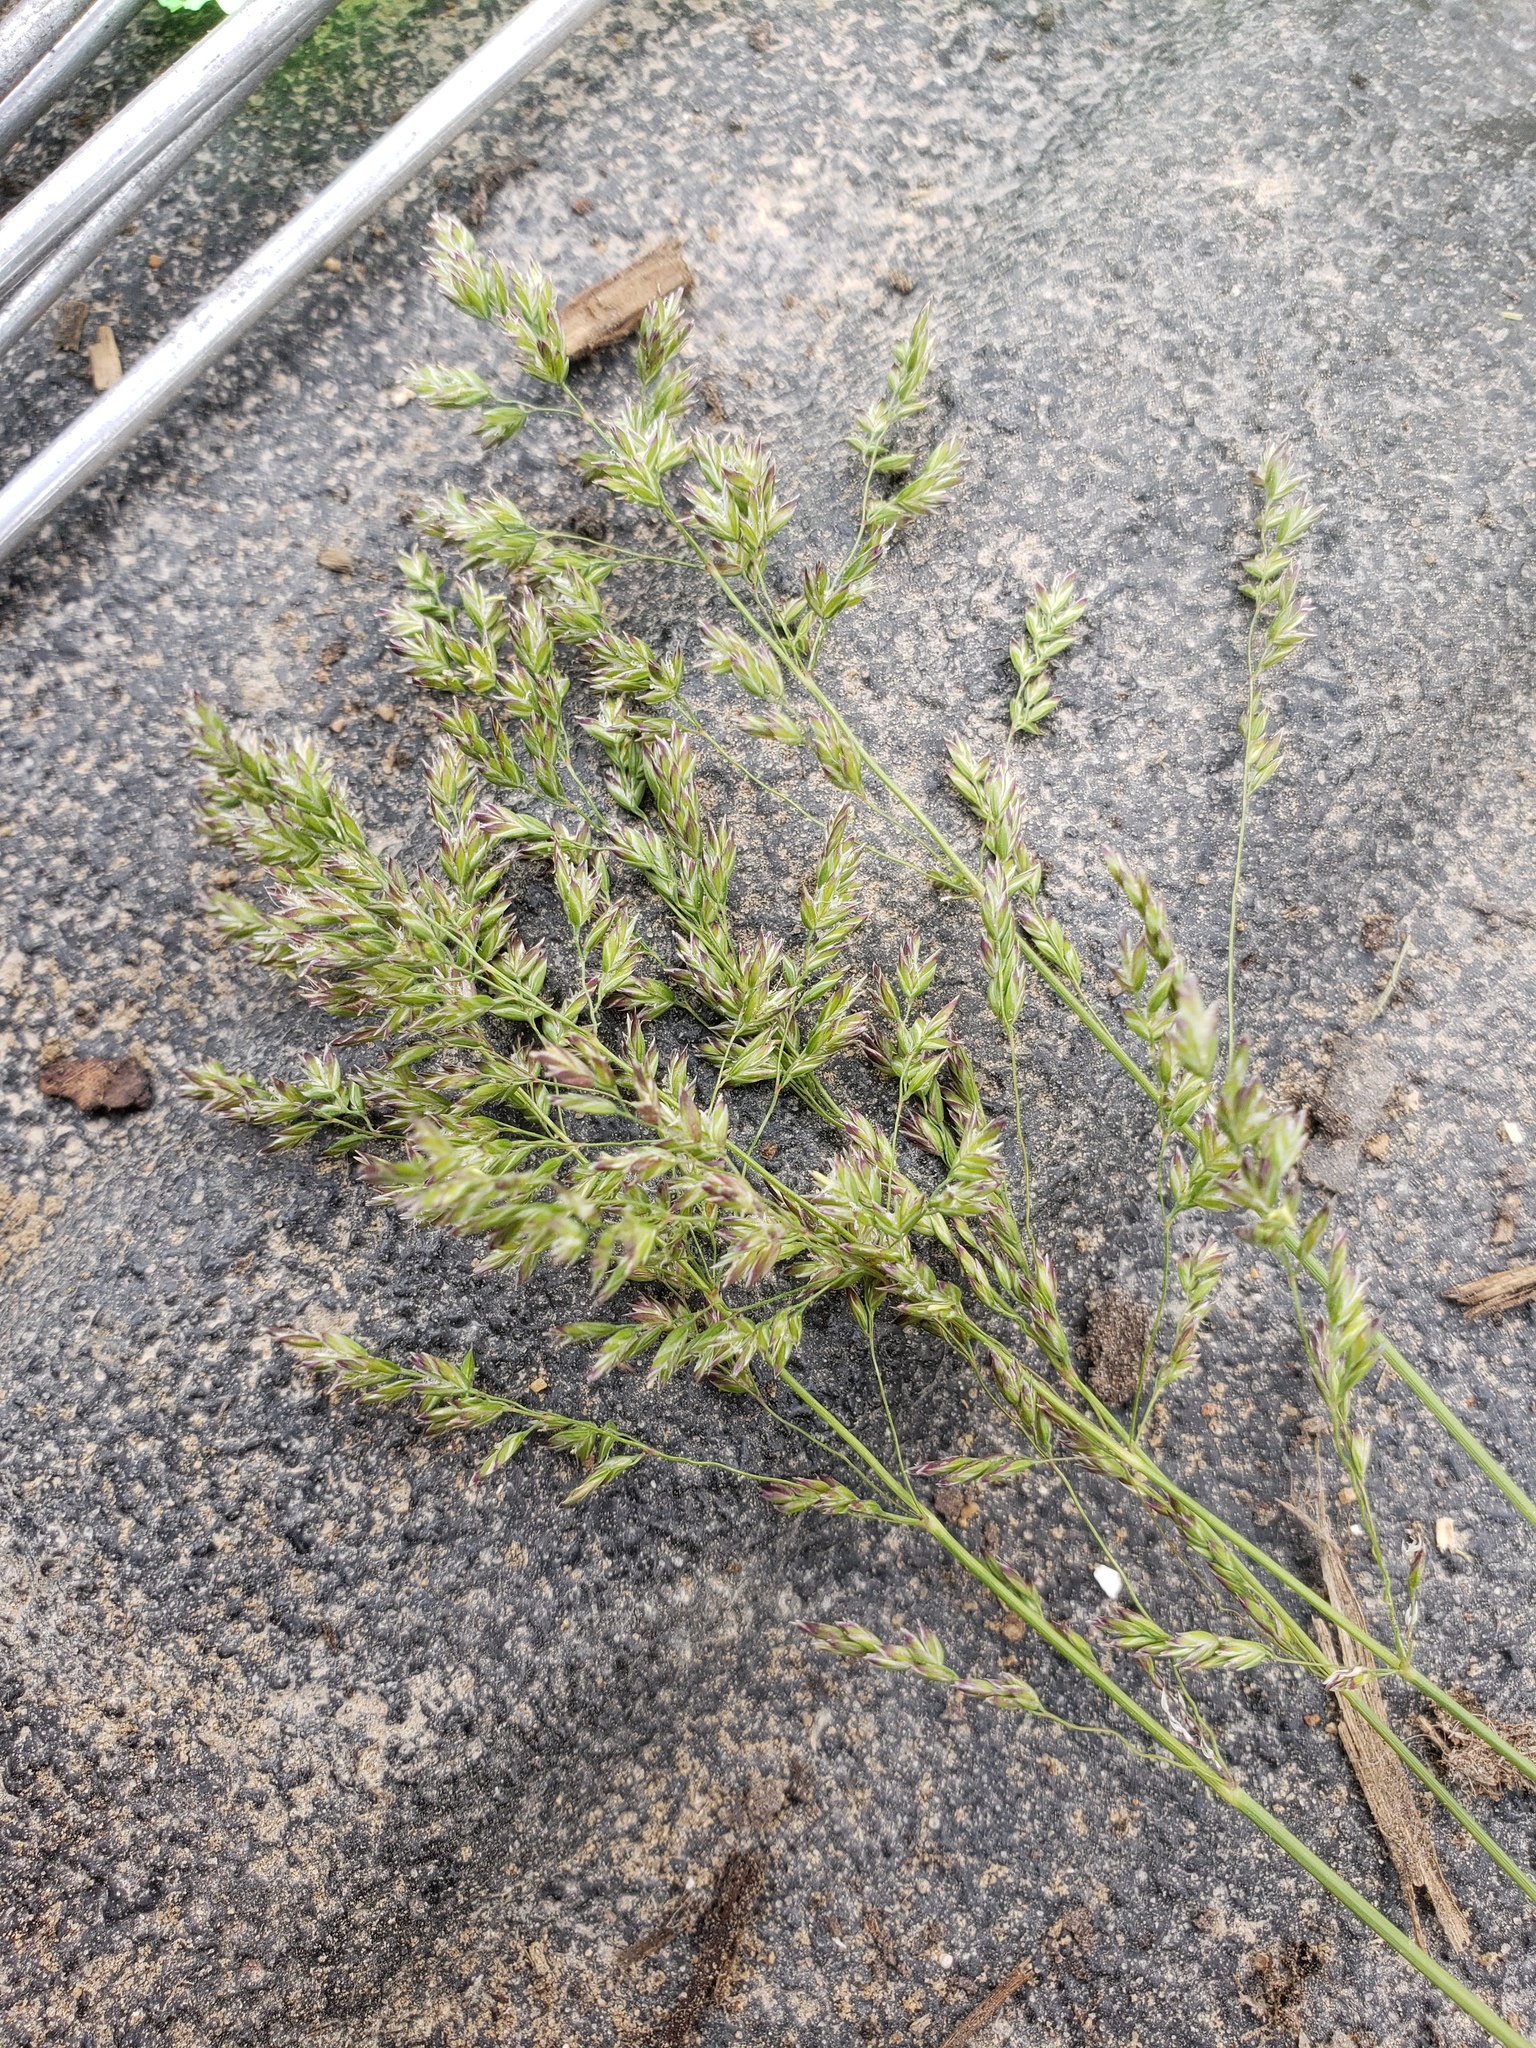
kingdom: Plantae
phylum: Tracheophyta
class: Liliopsida
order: Poales
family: Poaceae
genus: Poa
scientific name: Poa pratensis
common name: Kentucky bluegrass
